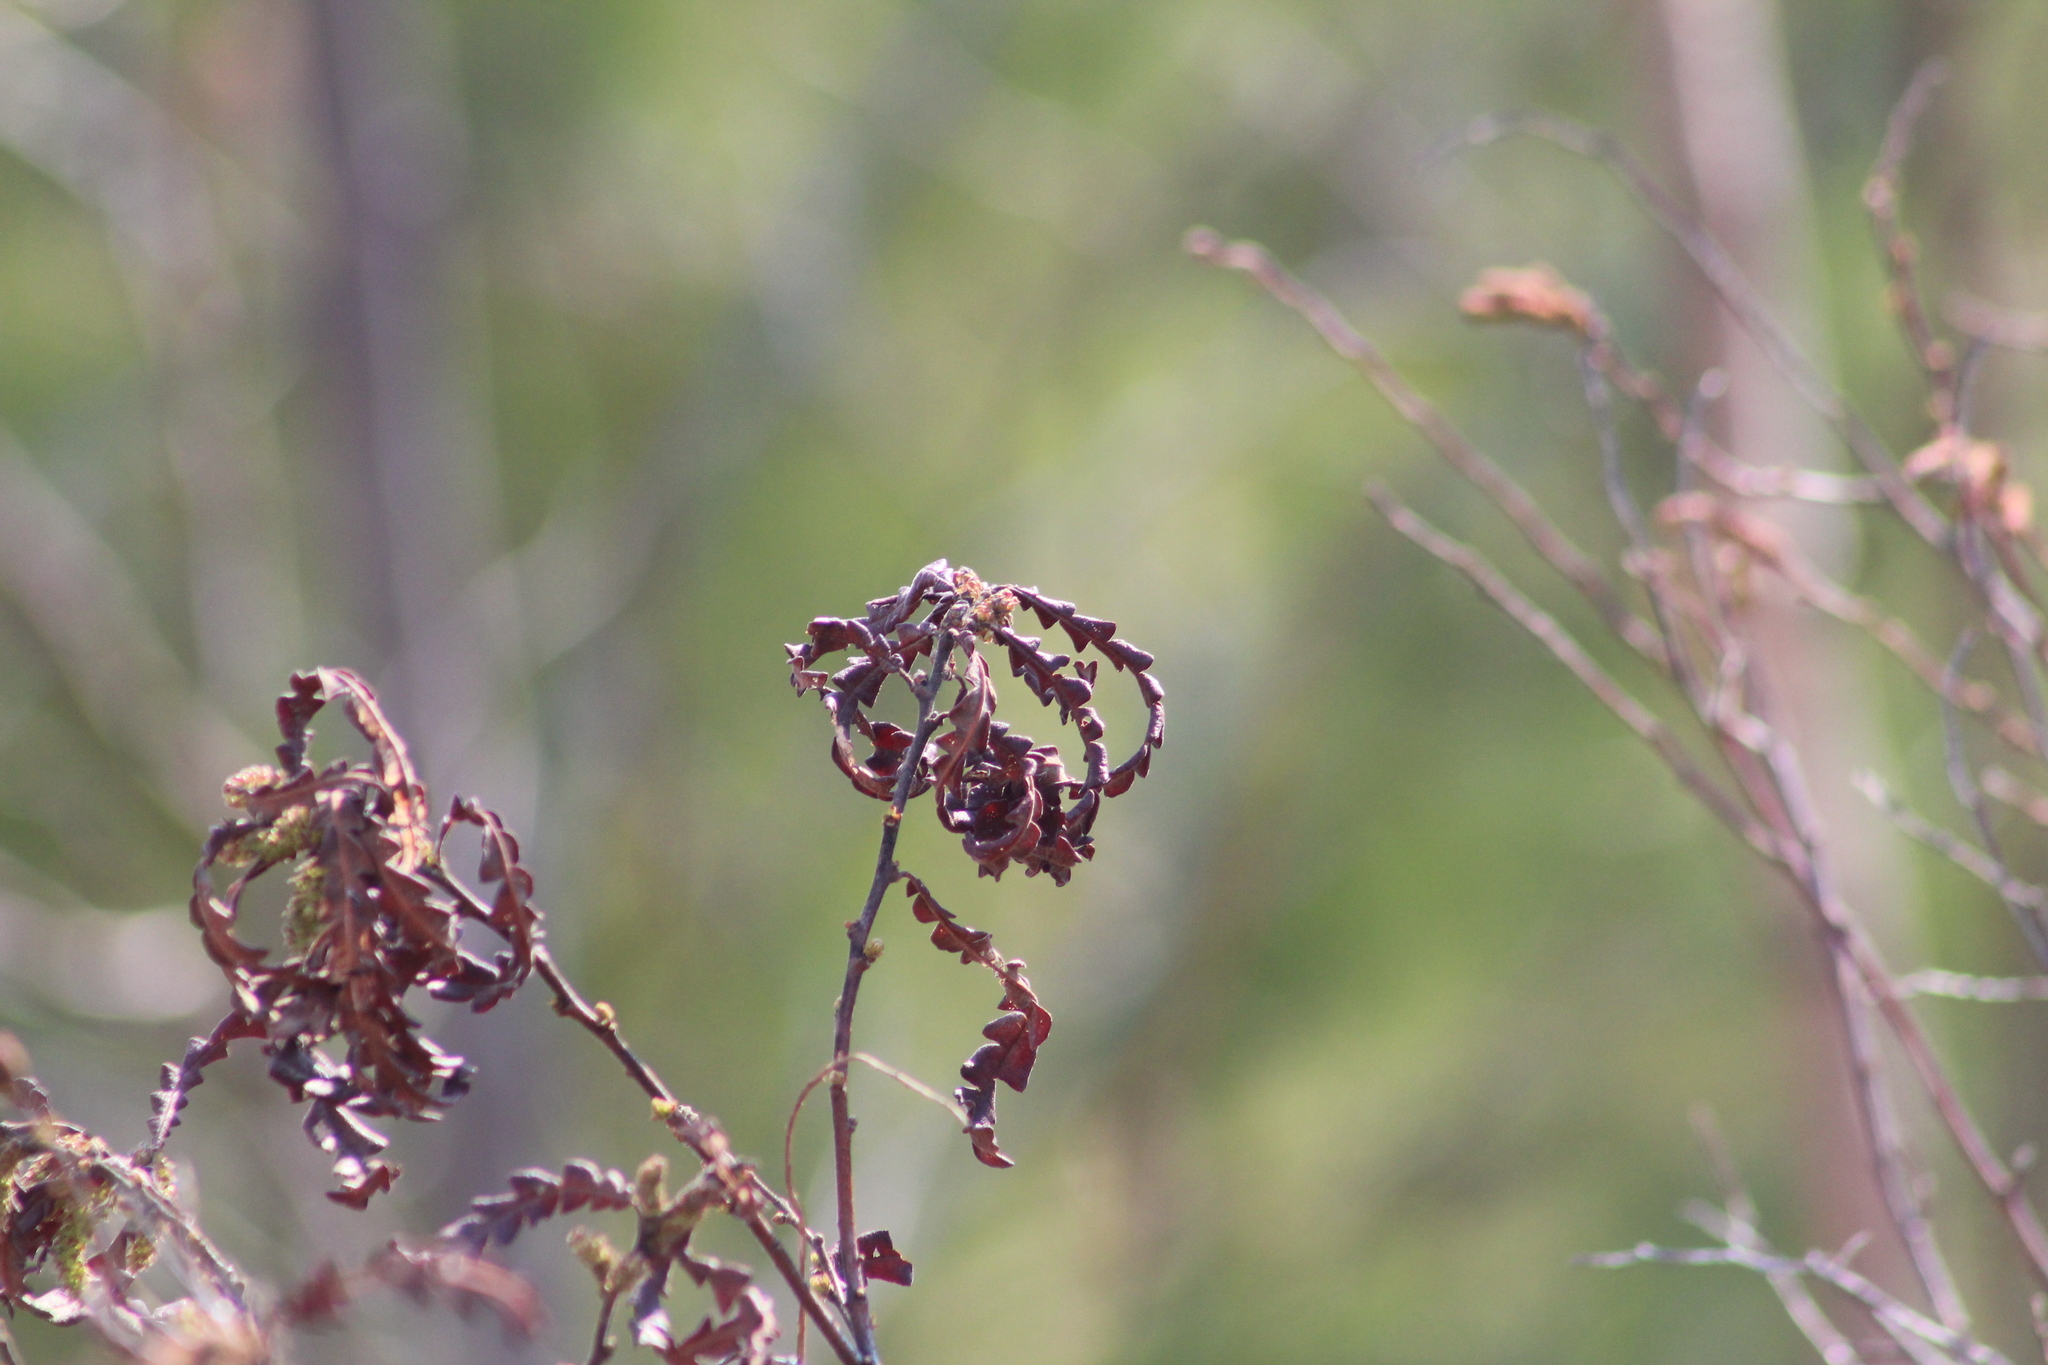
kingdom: Plantae
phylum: Tracheophyta
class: Magnoliopsida
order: Fagales
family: Myricaceae
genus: Comptonia
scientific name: Comptonia peregrina
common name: Sweet-fern
